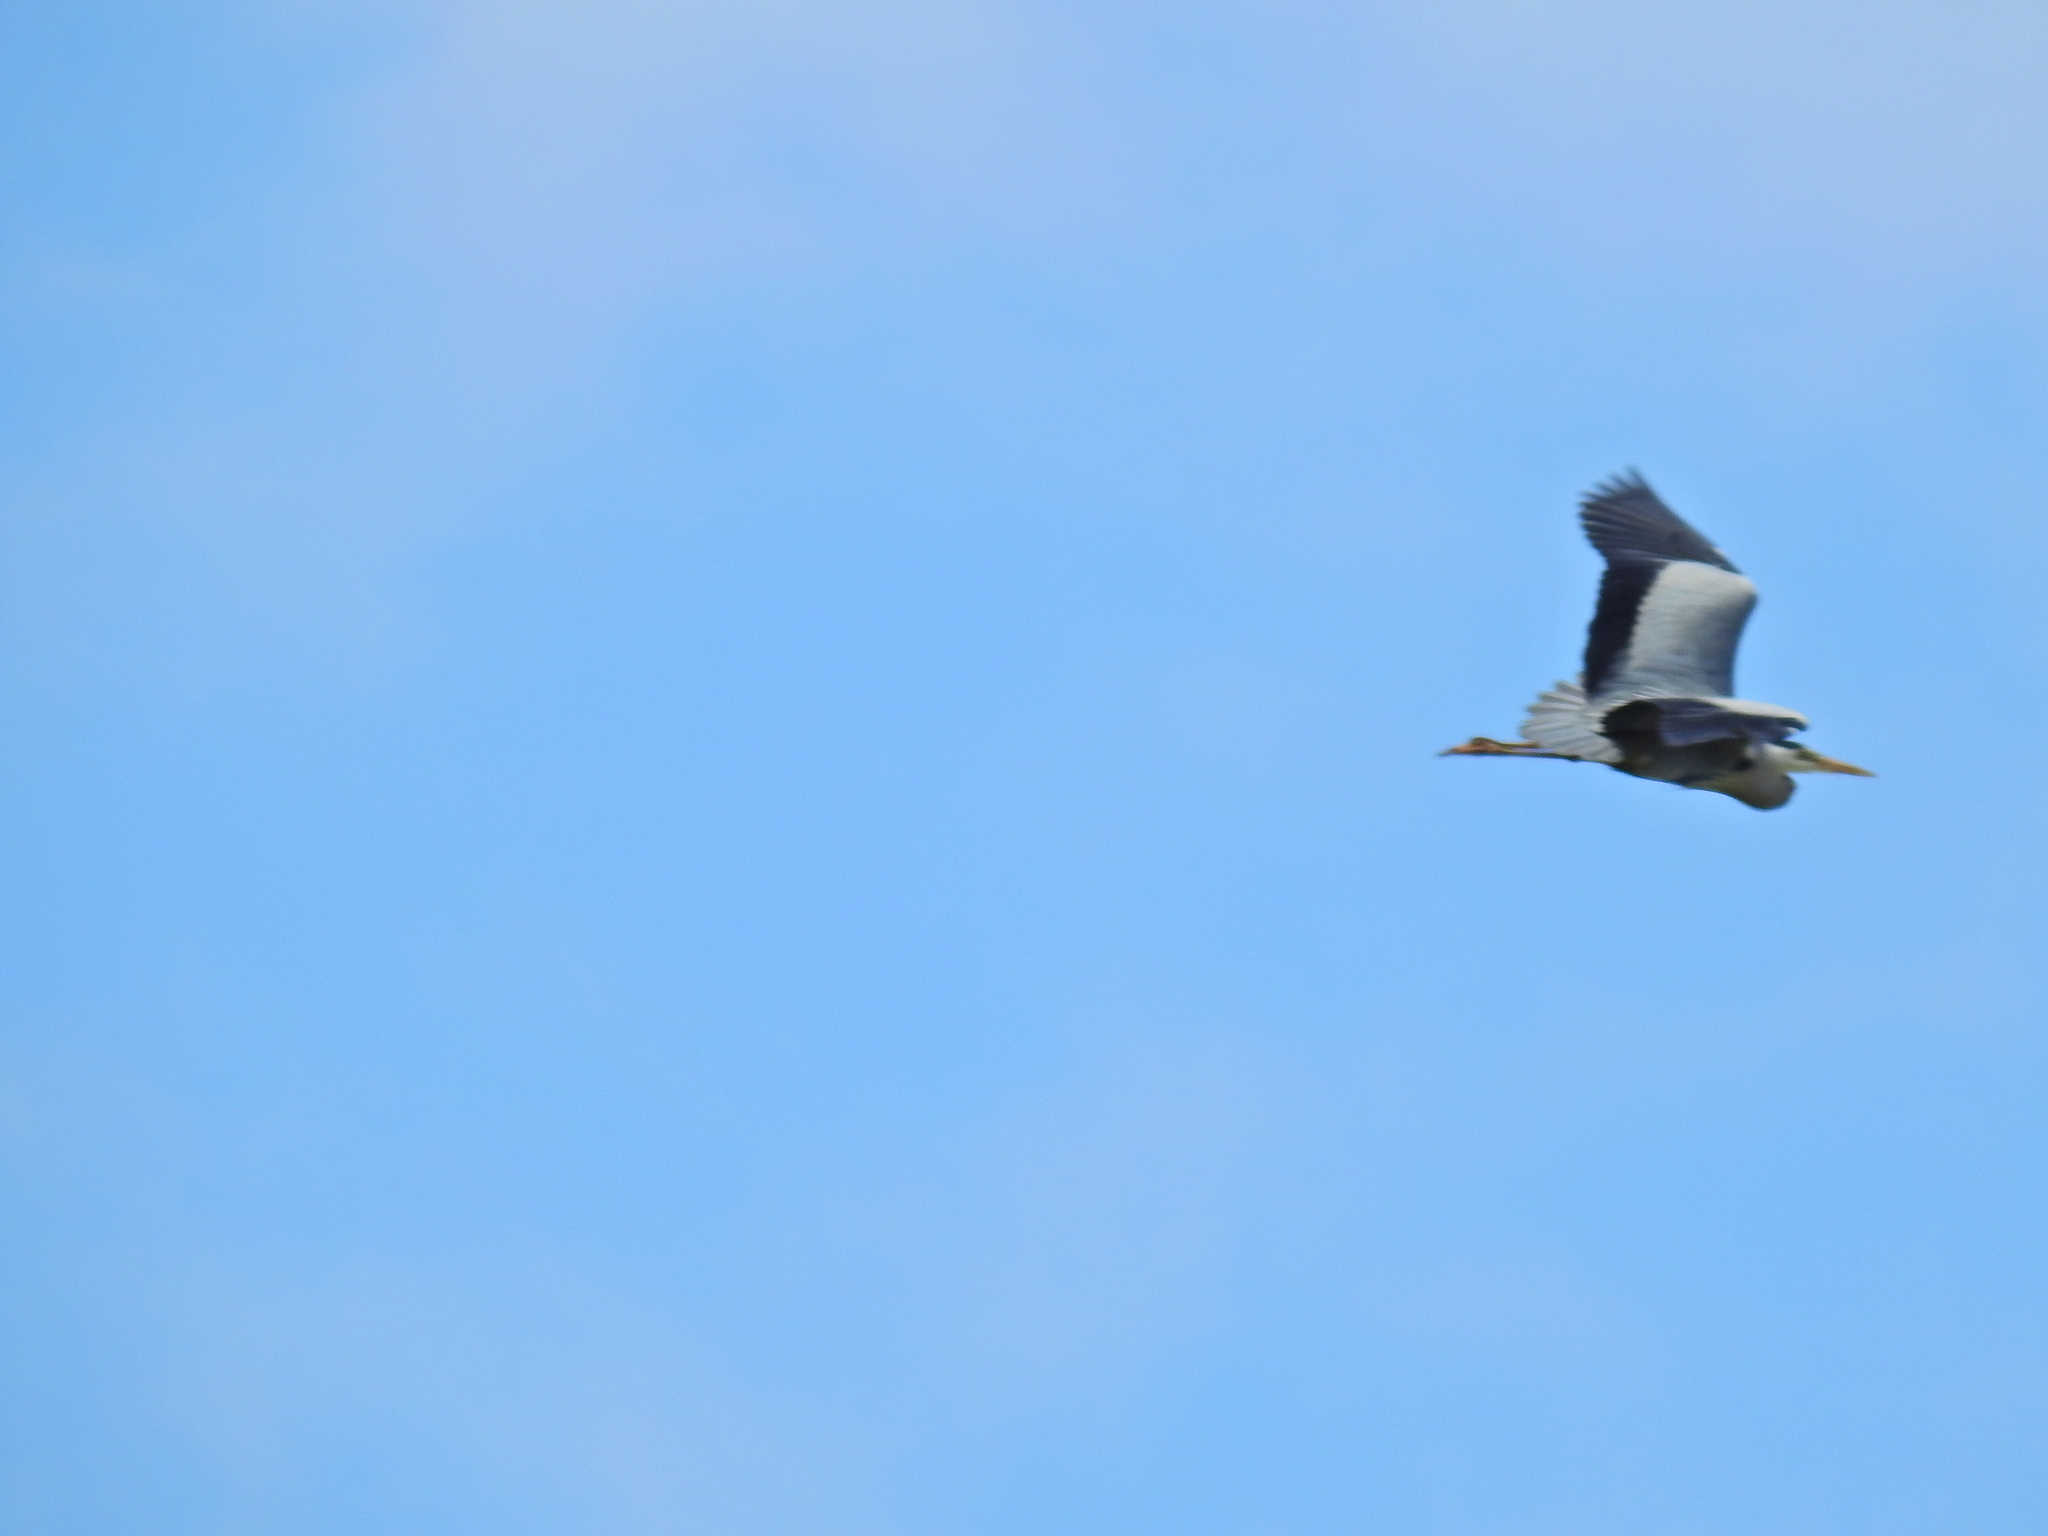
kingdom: Animalia
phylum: Chordata
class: Aves
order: Pelecaniformes
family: Ardeidae
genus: Ardea
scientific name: Ardea cinerea
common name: Grey heron
